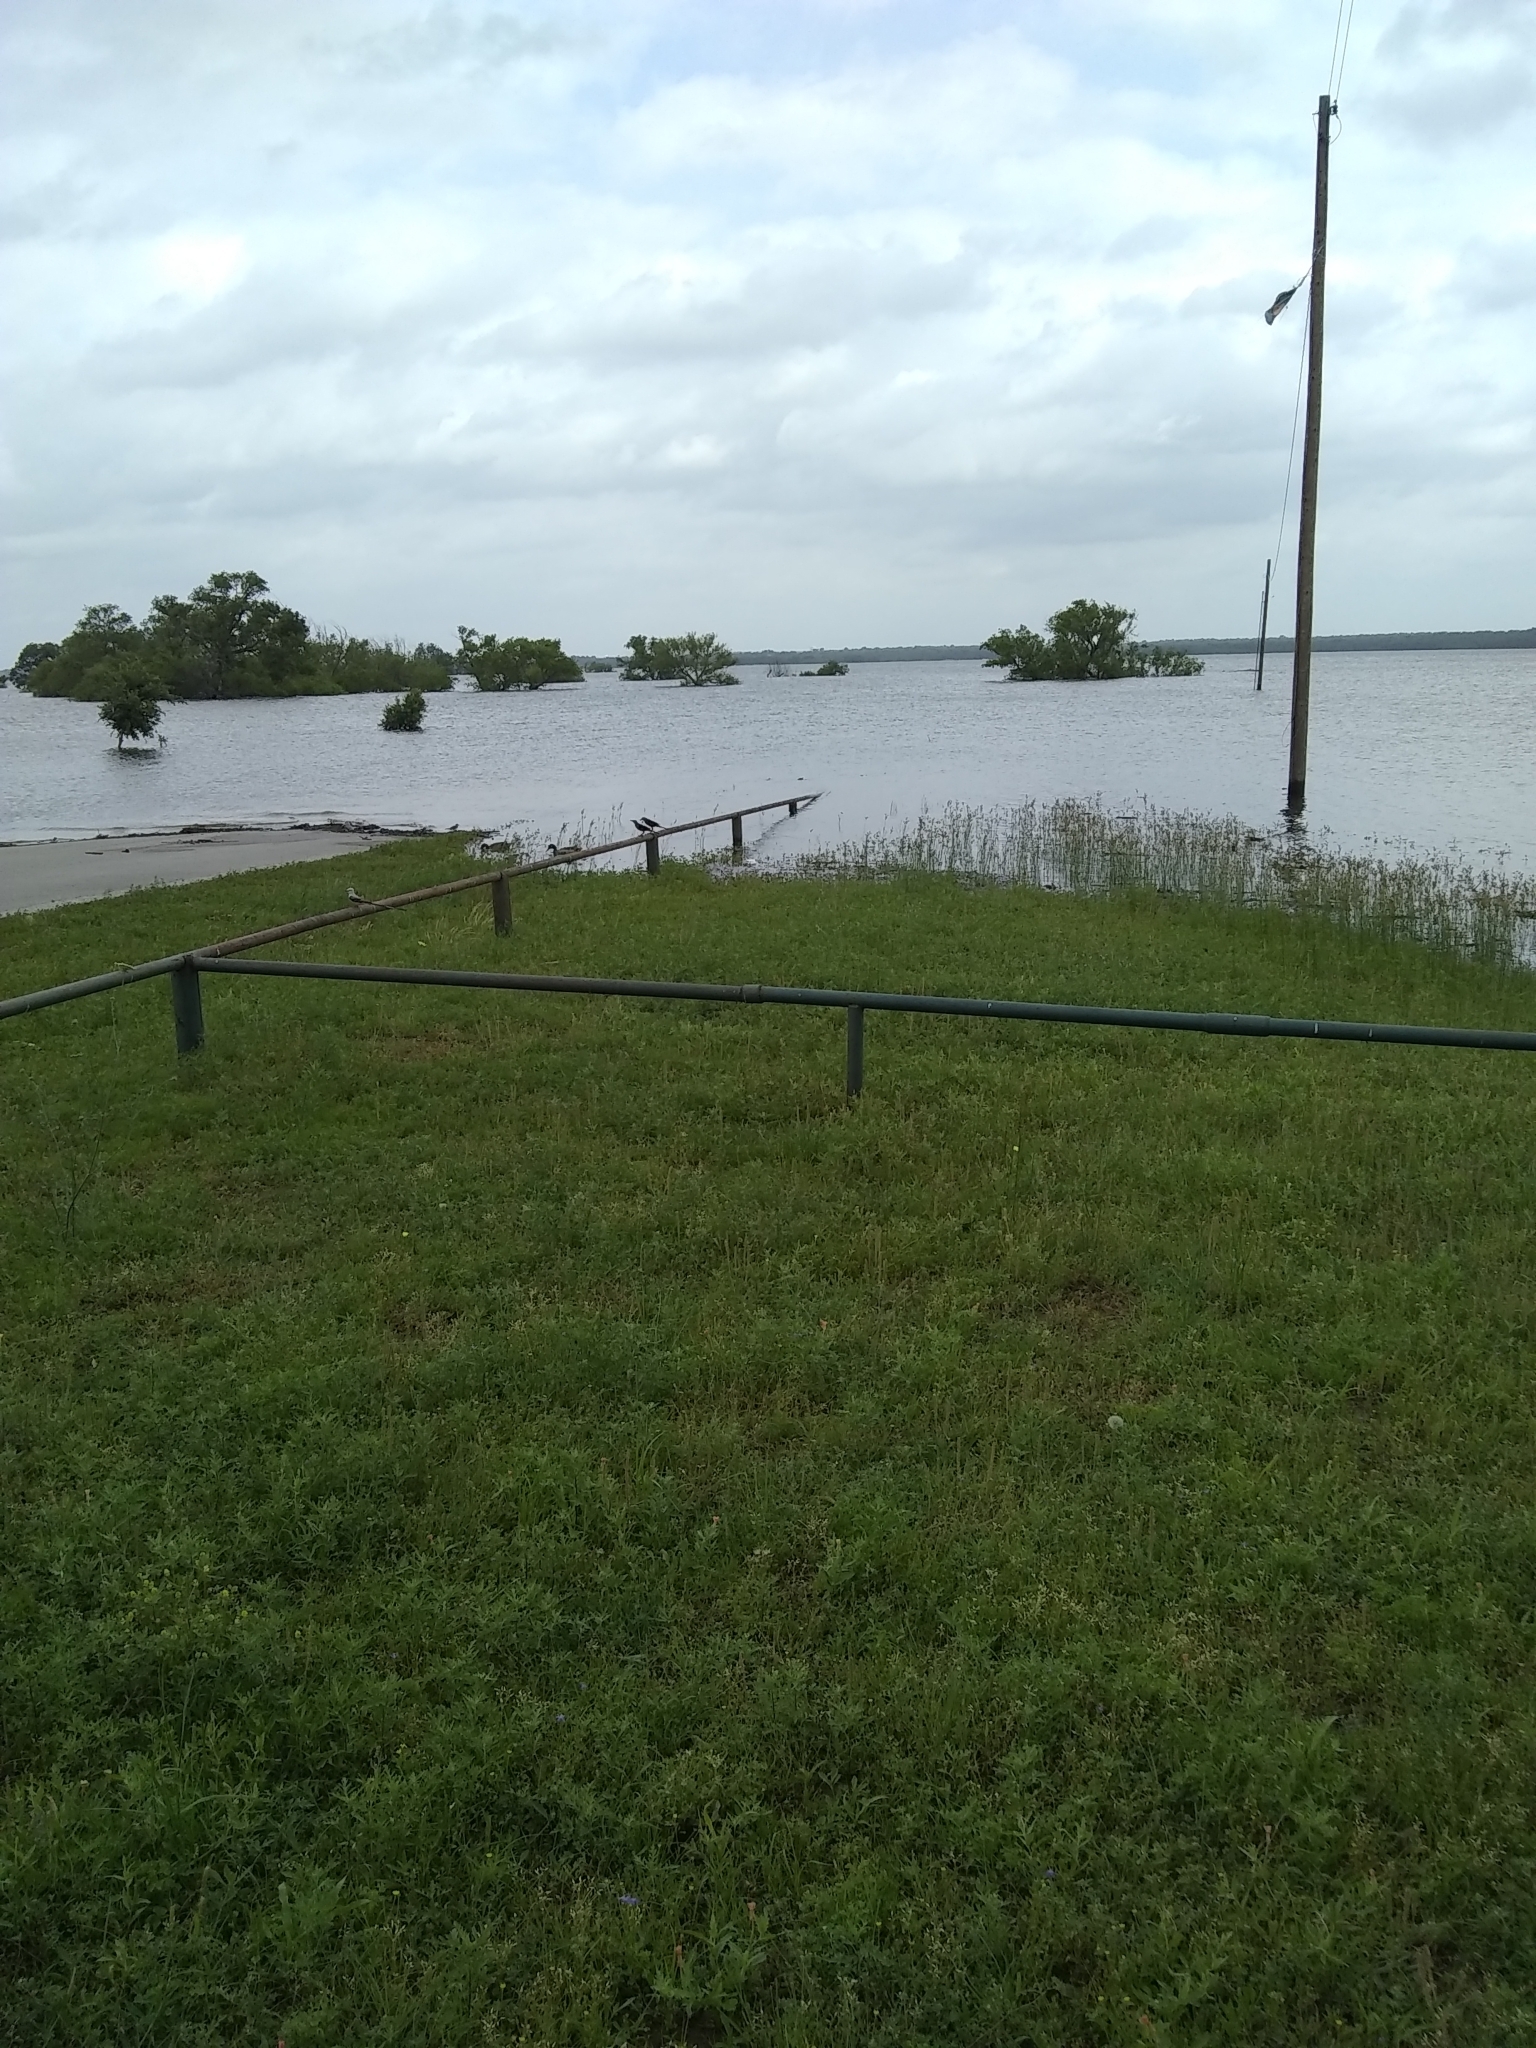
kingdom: Animalia
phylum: Chordata
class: Aves
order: Passeriformes
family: Tyrannidae
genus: Tyrannus
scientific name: Tyrannus forficatus
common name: Scissor-tailed flycatcher
